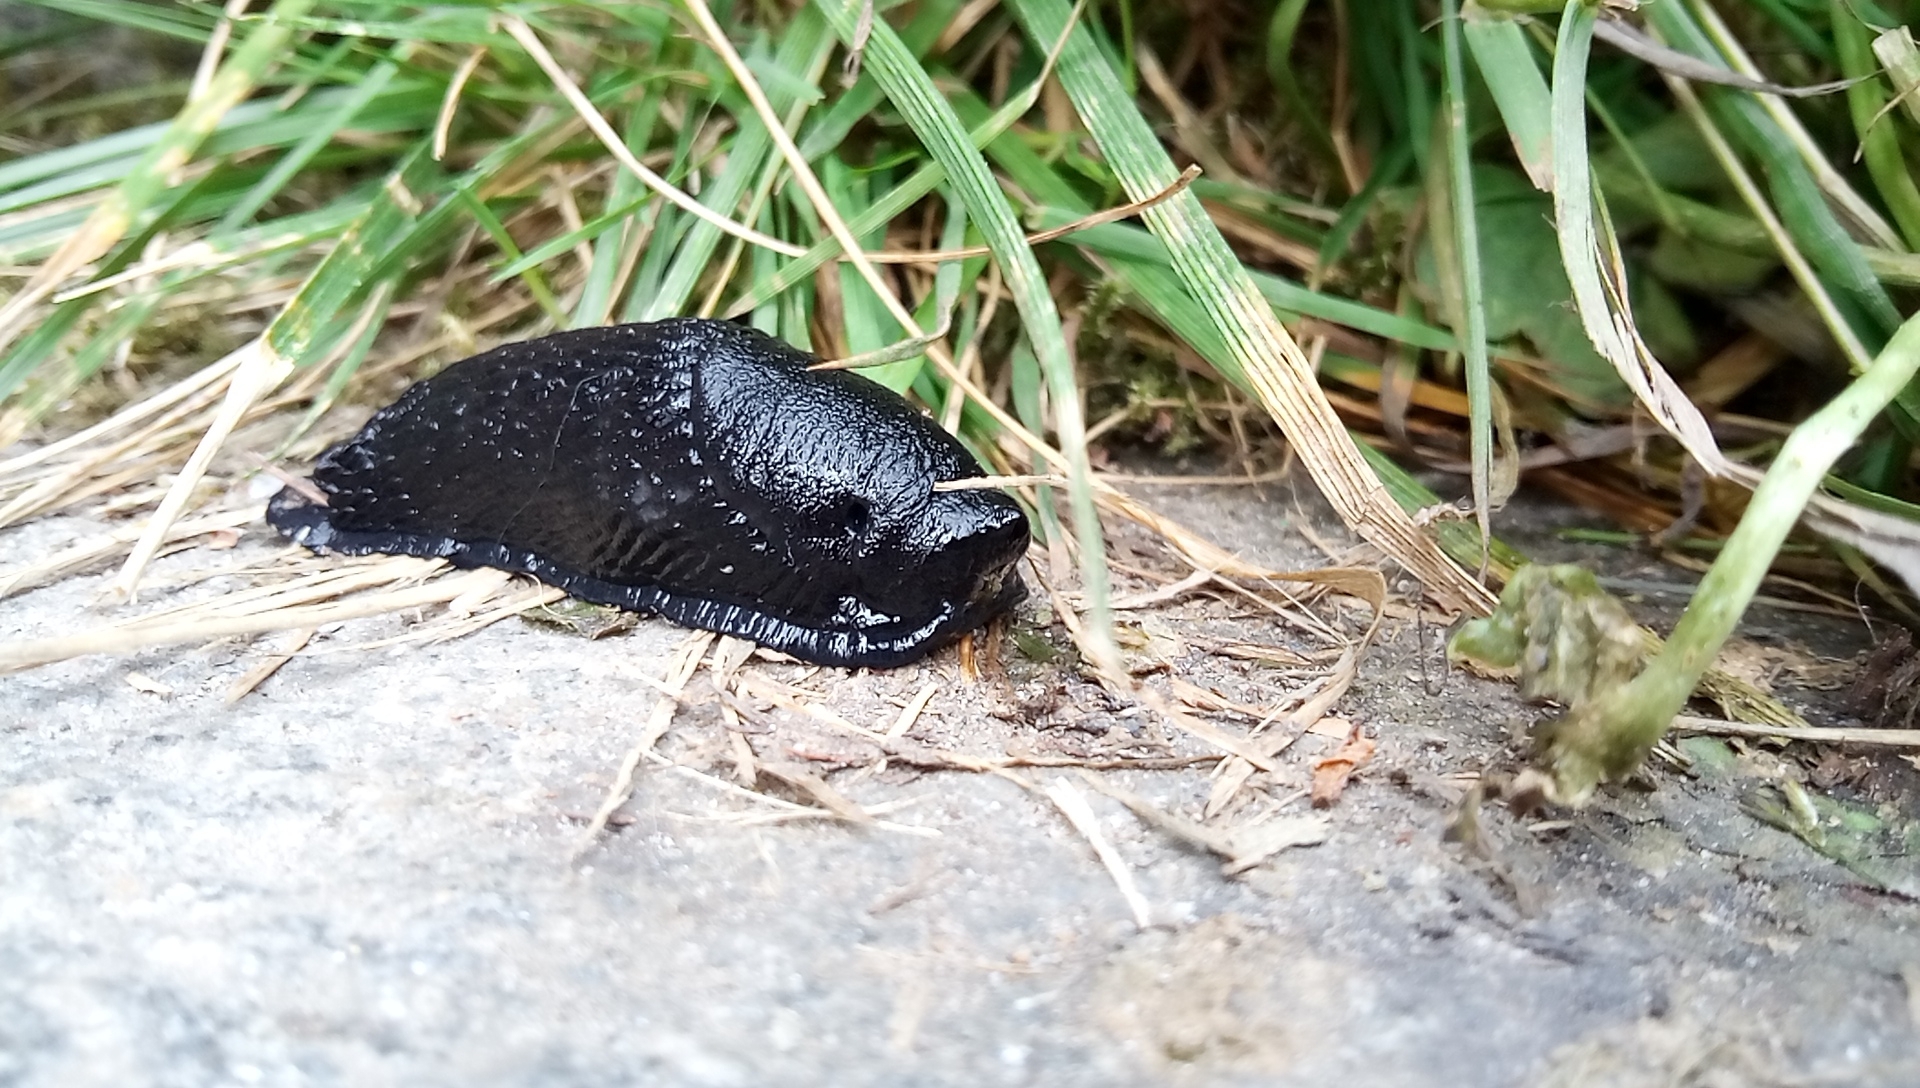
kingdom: Animalia
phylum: Mollusca
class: Gastropoda
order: Stylommatophora
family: Arionidae
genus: Arion
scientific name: Arion ater
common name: Black arion
